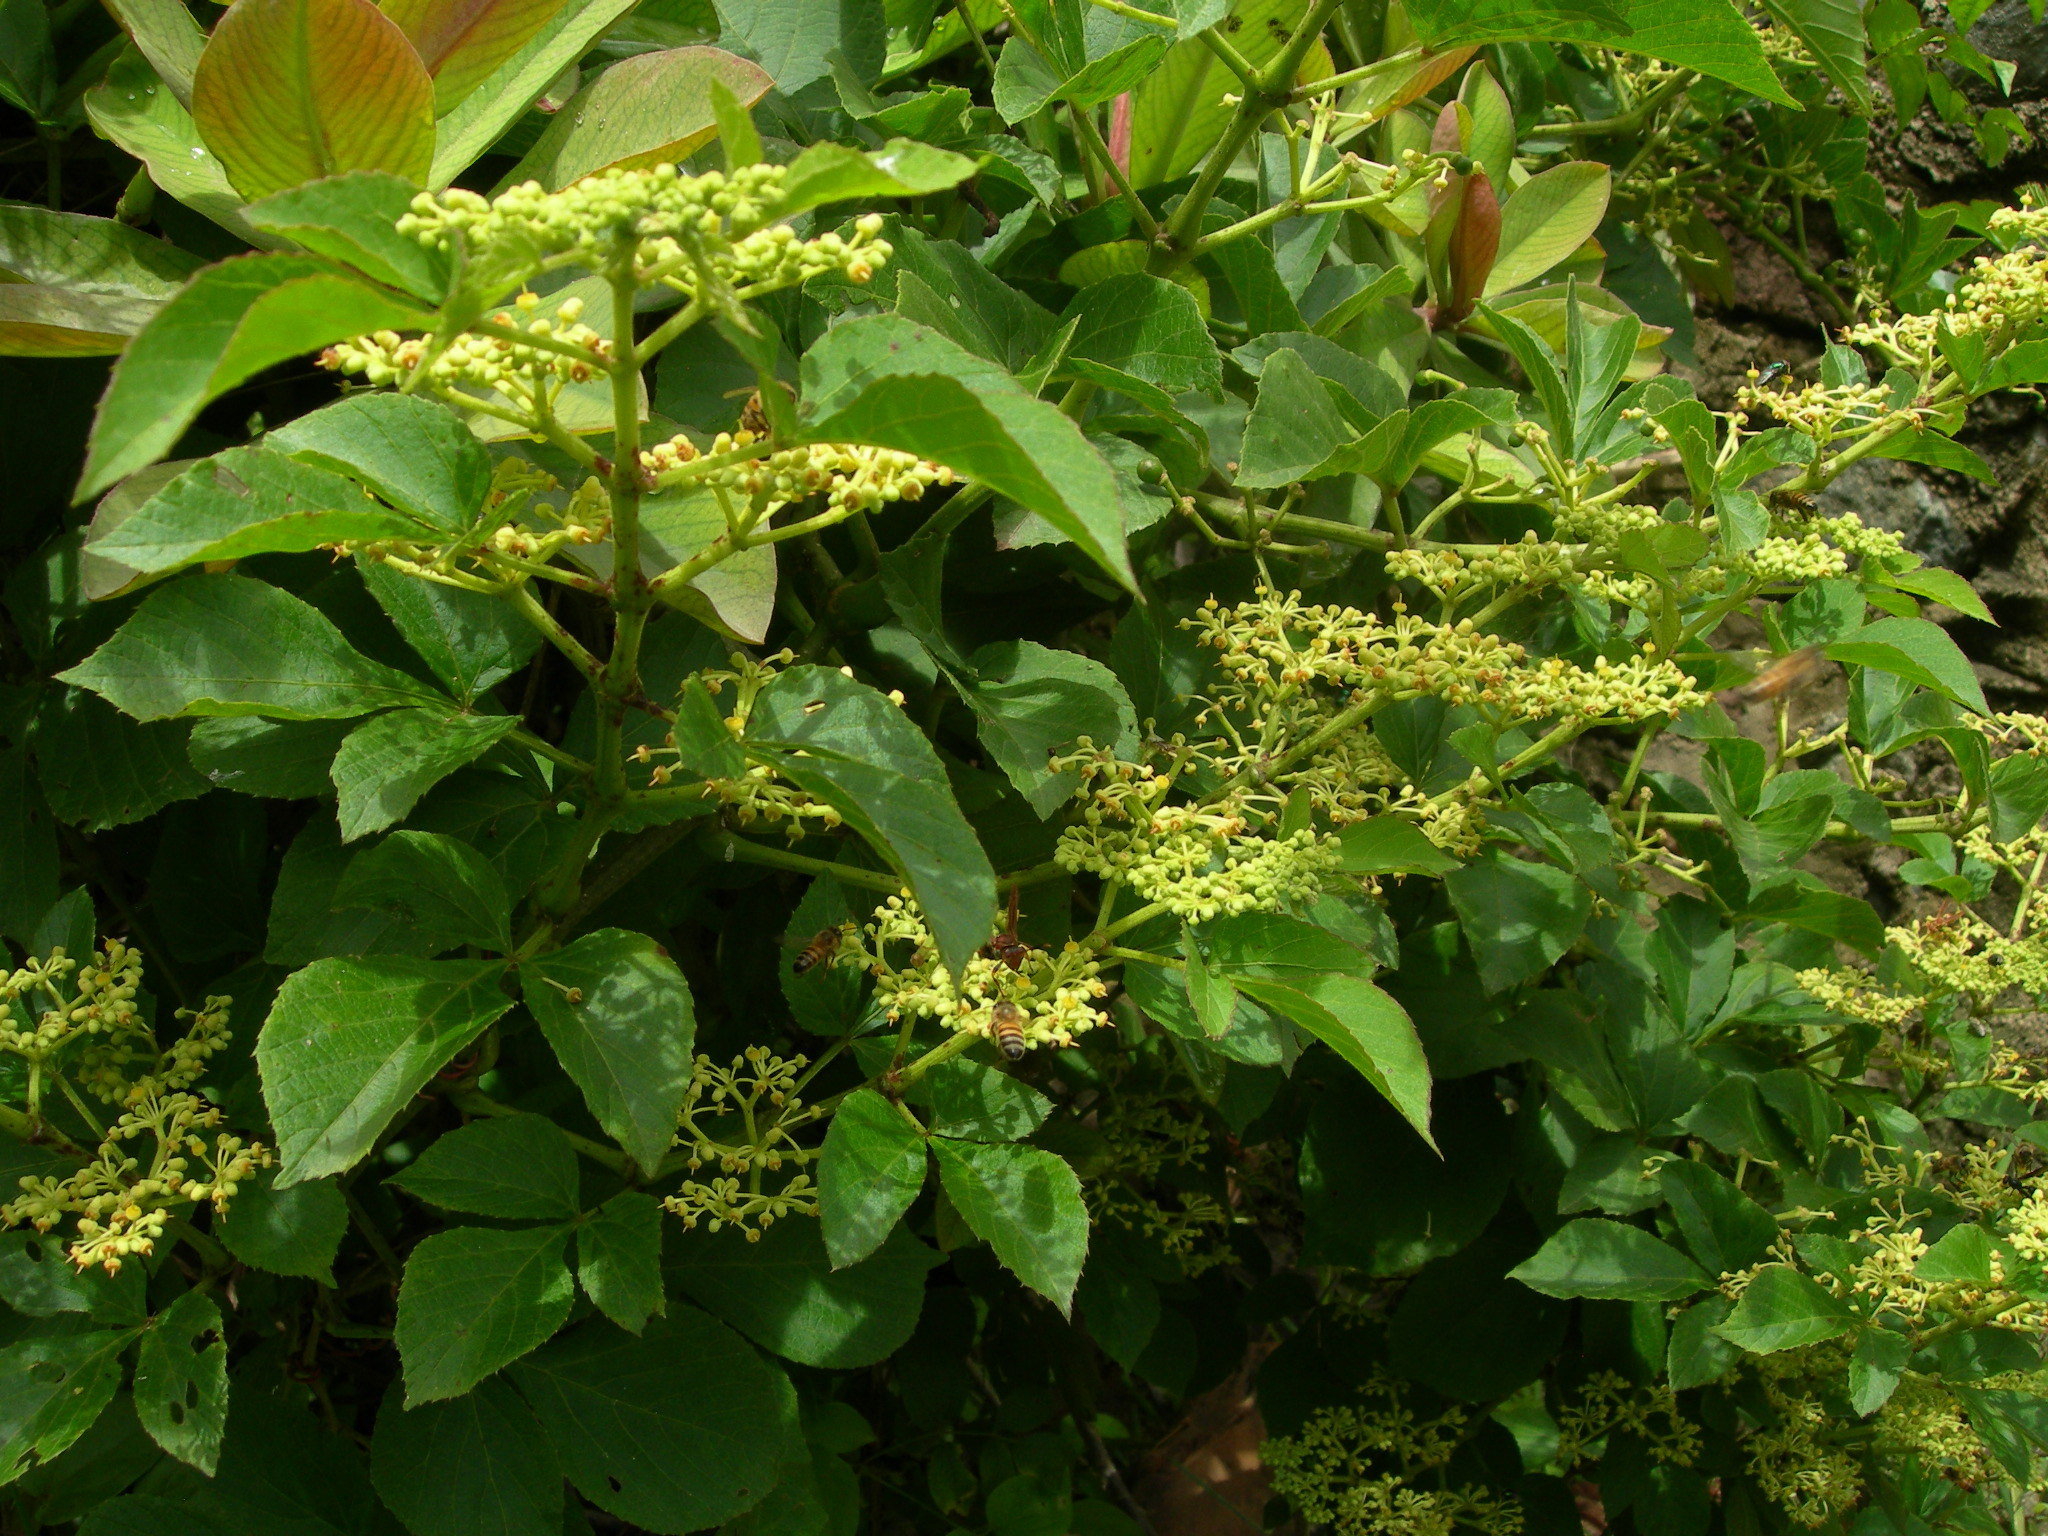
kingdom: Plantae
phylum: Tracheophyta
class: Magnoliopsida
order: Vitales
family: Vitaceae
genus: Cissus
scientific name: Cissus microcarpa
